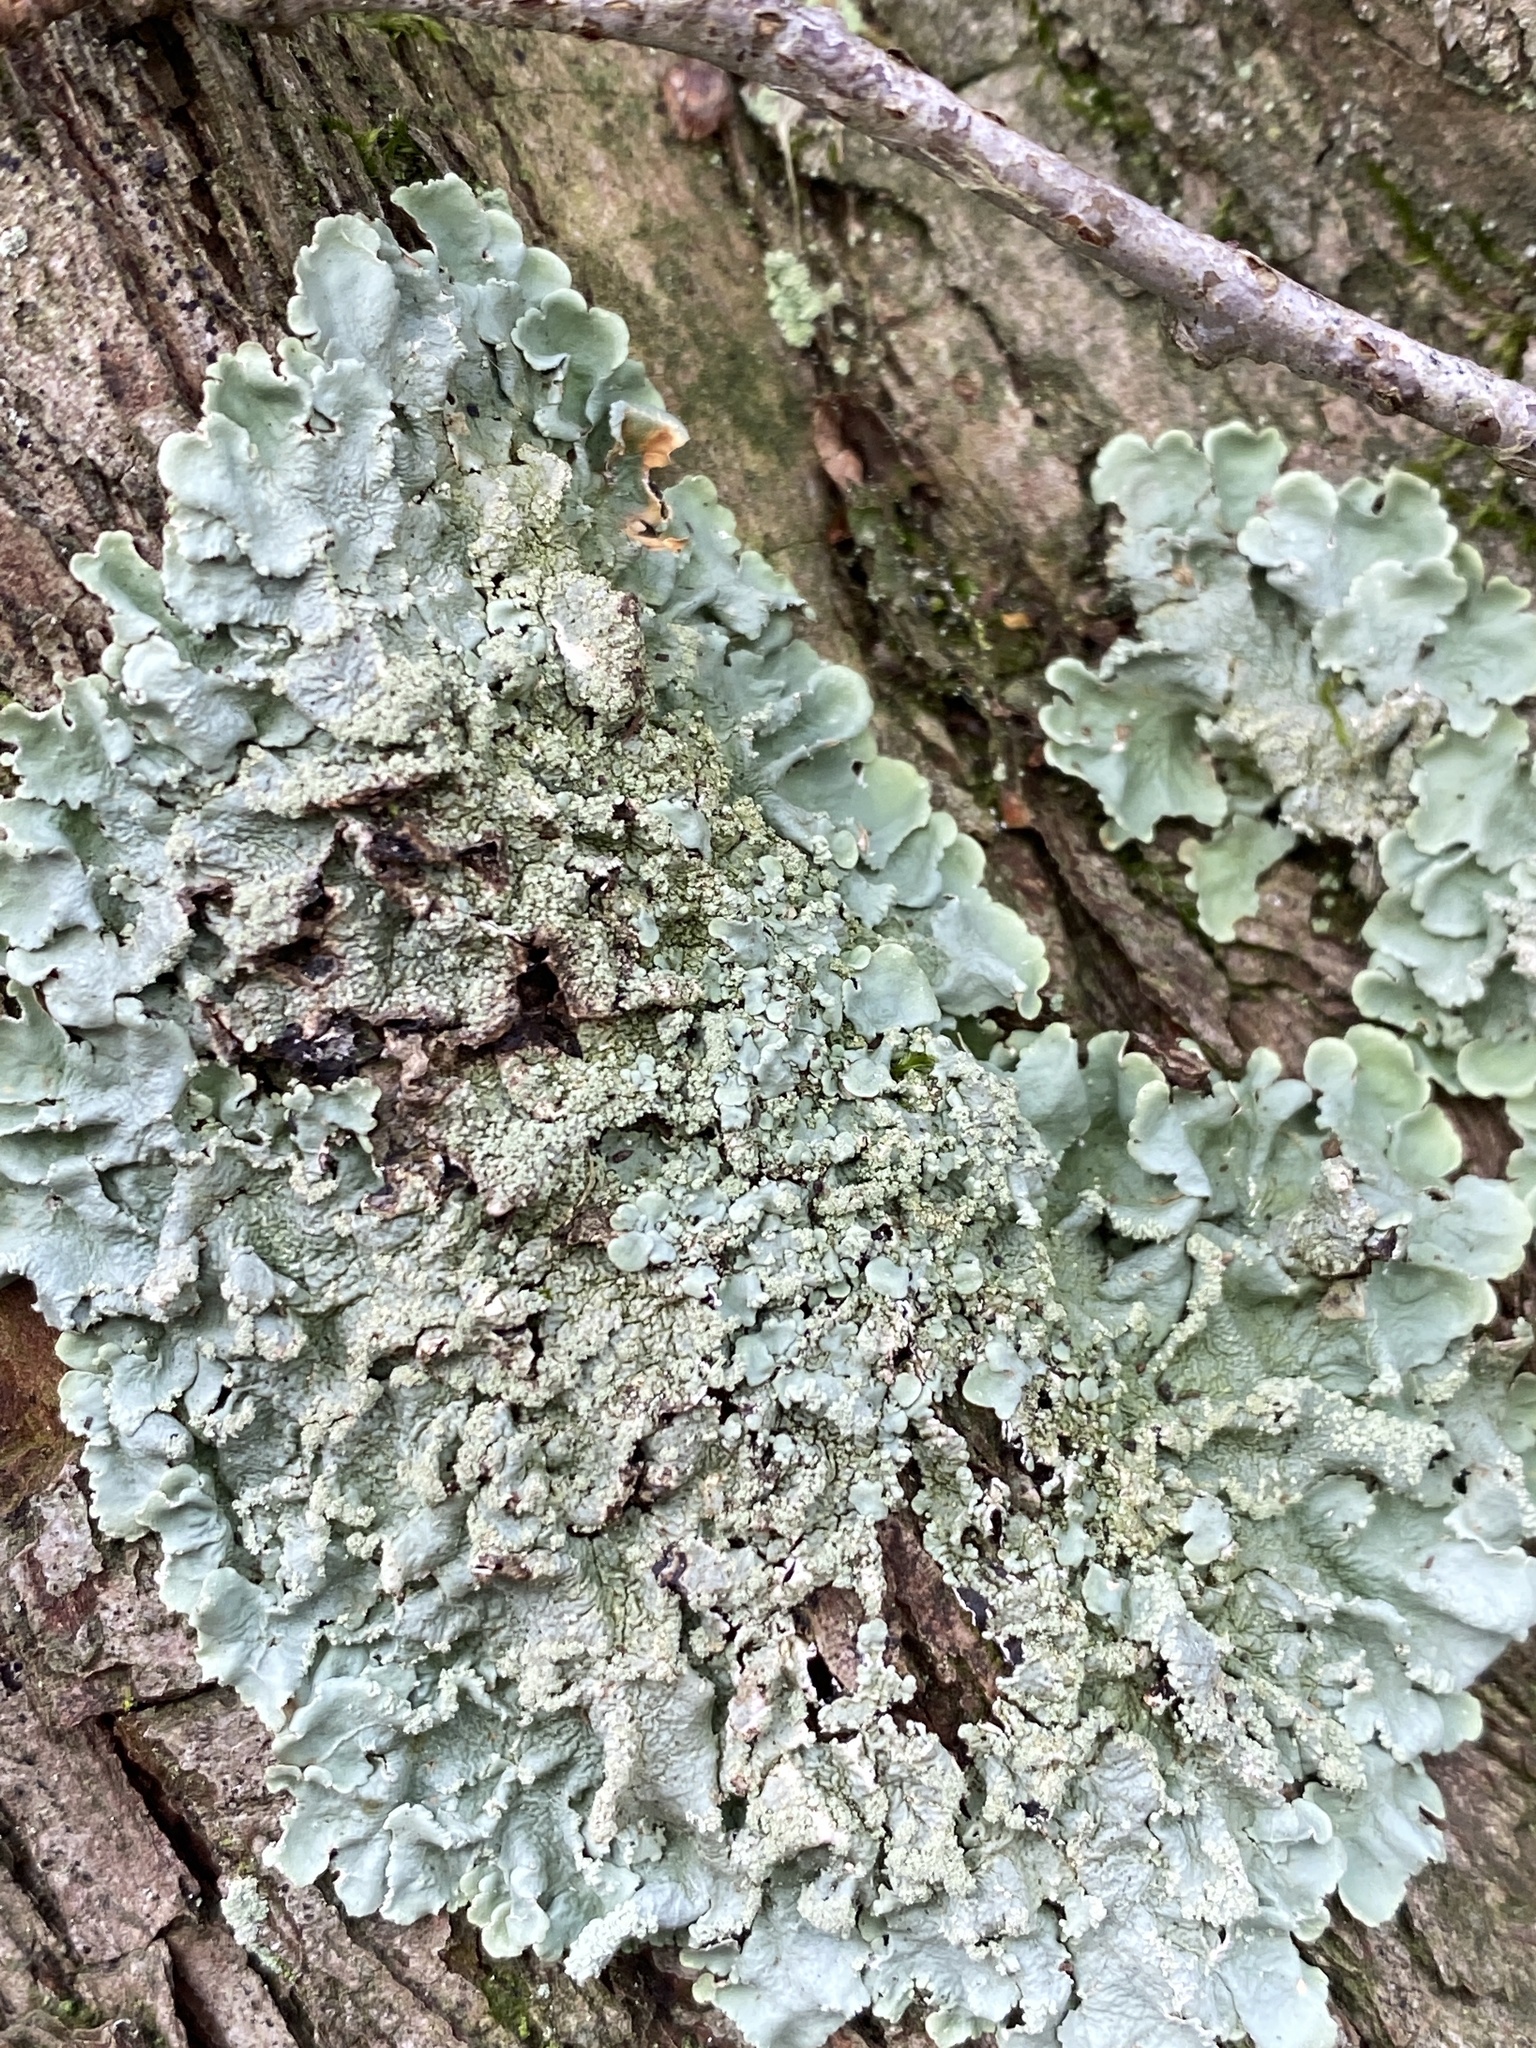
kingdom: Fungi
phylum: Ascomycota
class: Lecanoromycetes
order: Lecanorales
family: Parmeliaceae
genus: Flavoparmelia
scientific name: Flavoparmelia caperata
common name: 40-mile per hour lichen
